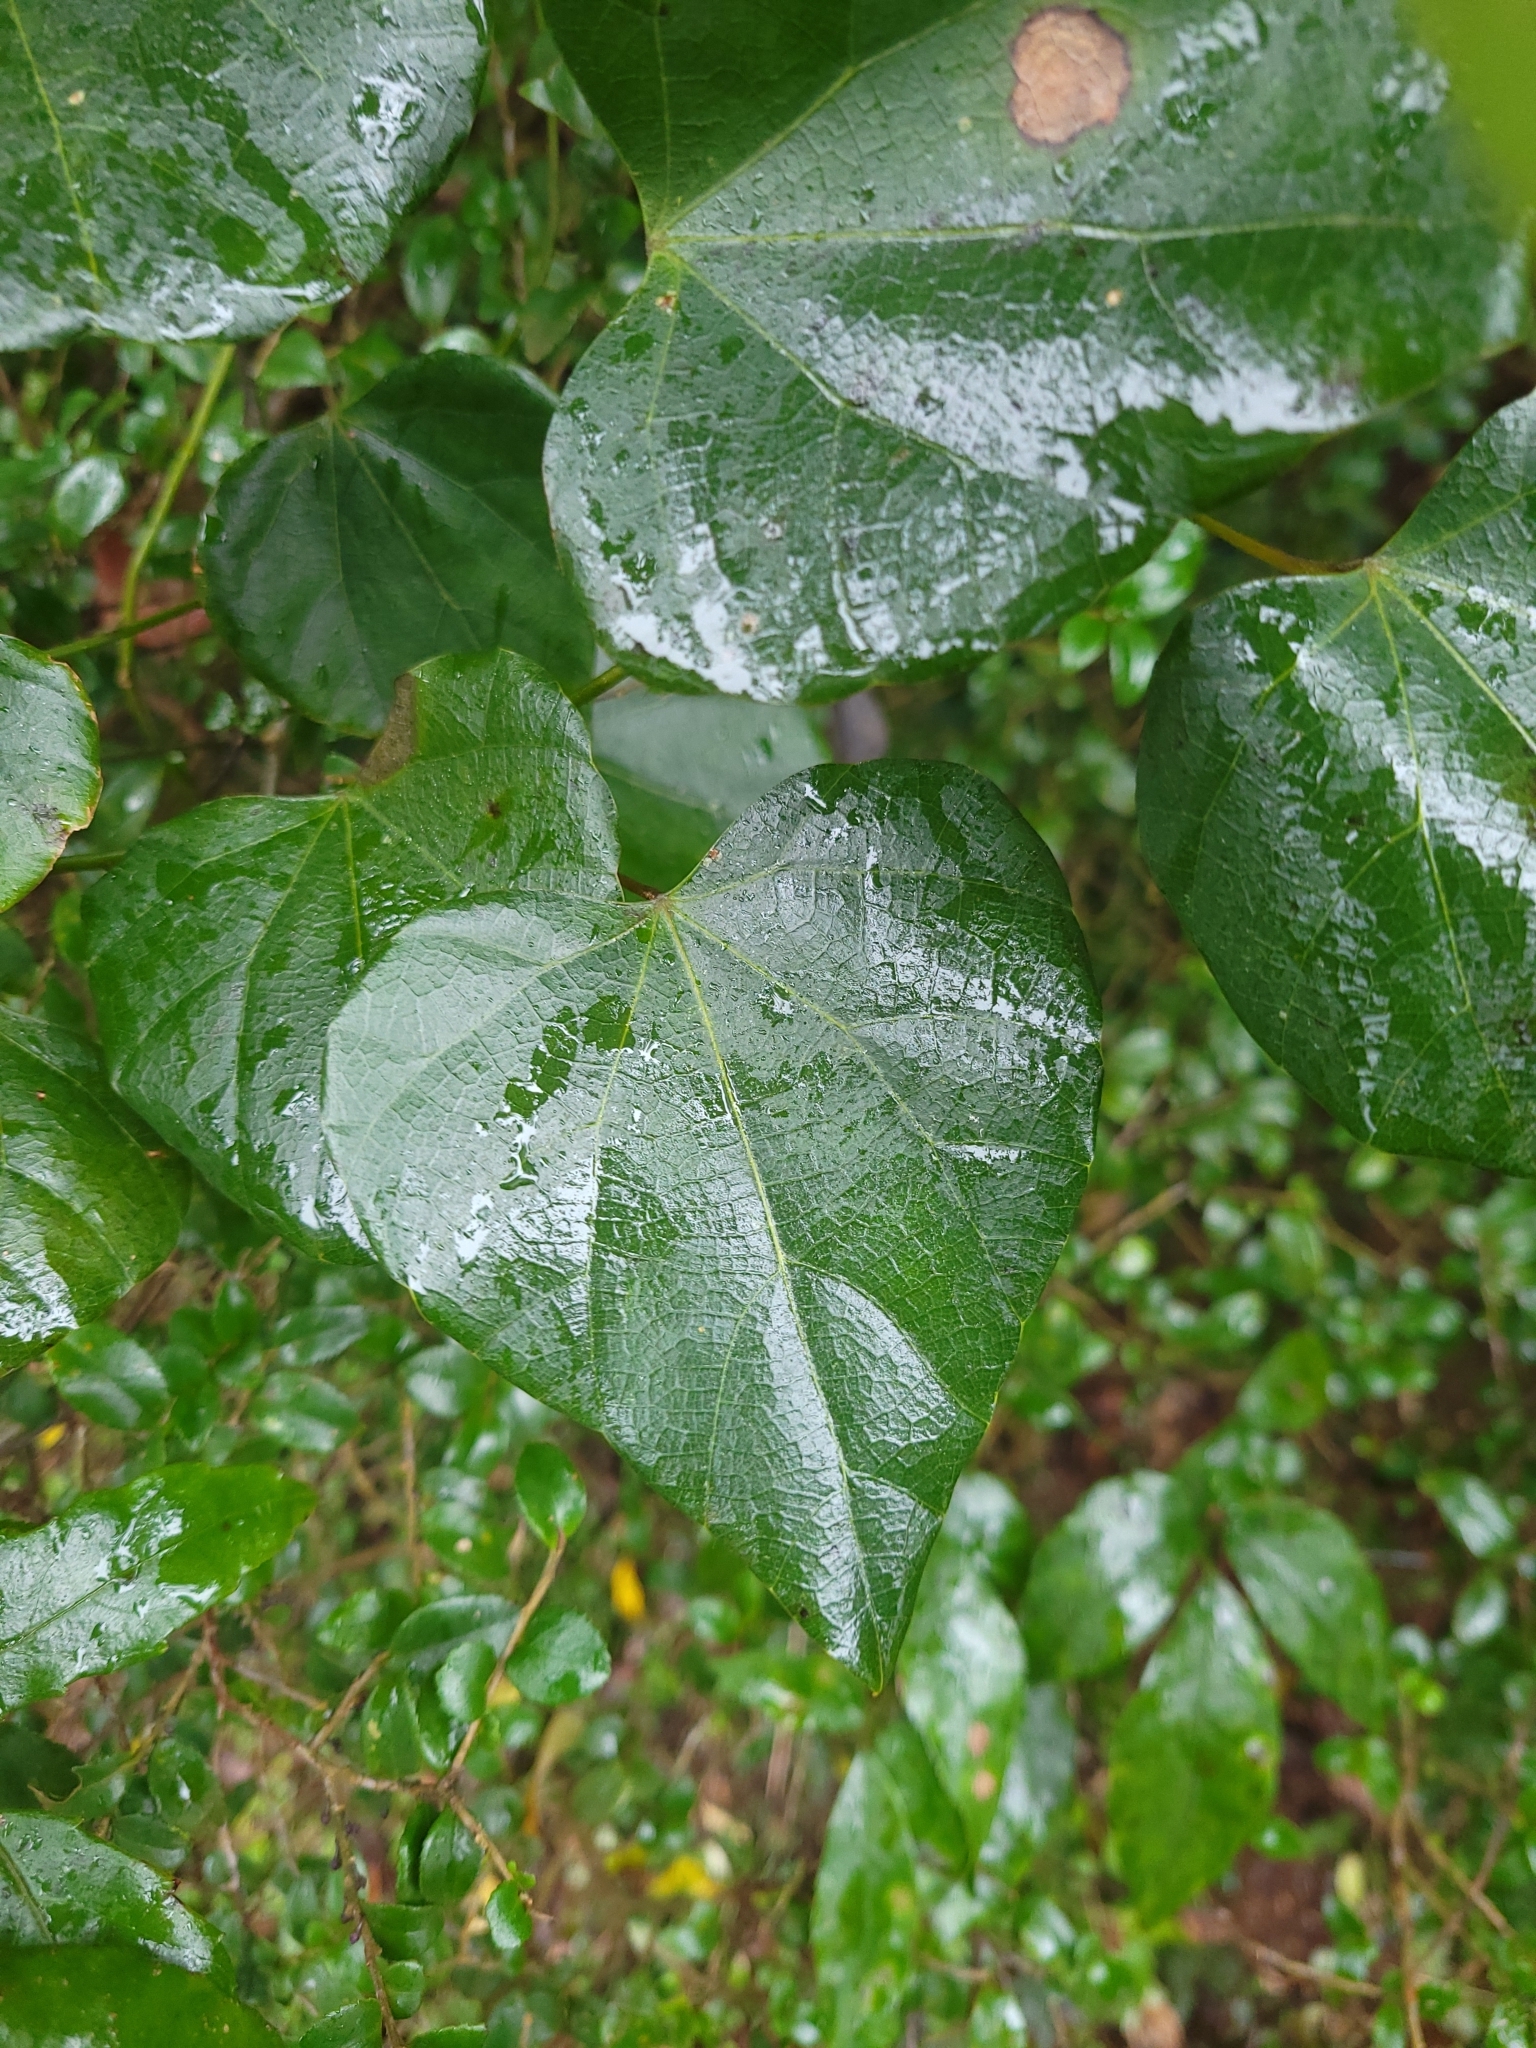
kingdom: Plantae
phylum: Tracheophyta
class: Magnoliopsida
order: Ranunculales
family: Menispermaceae
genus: Pericampylus
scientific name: Pericampylus glaucus
